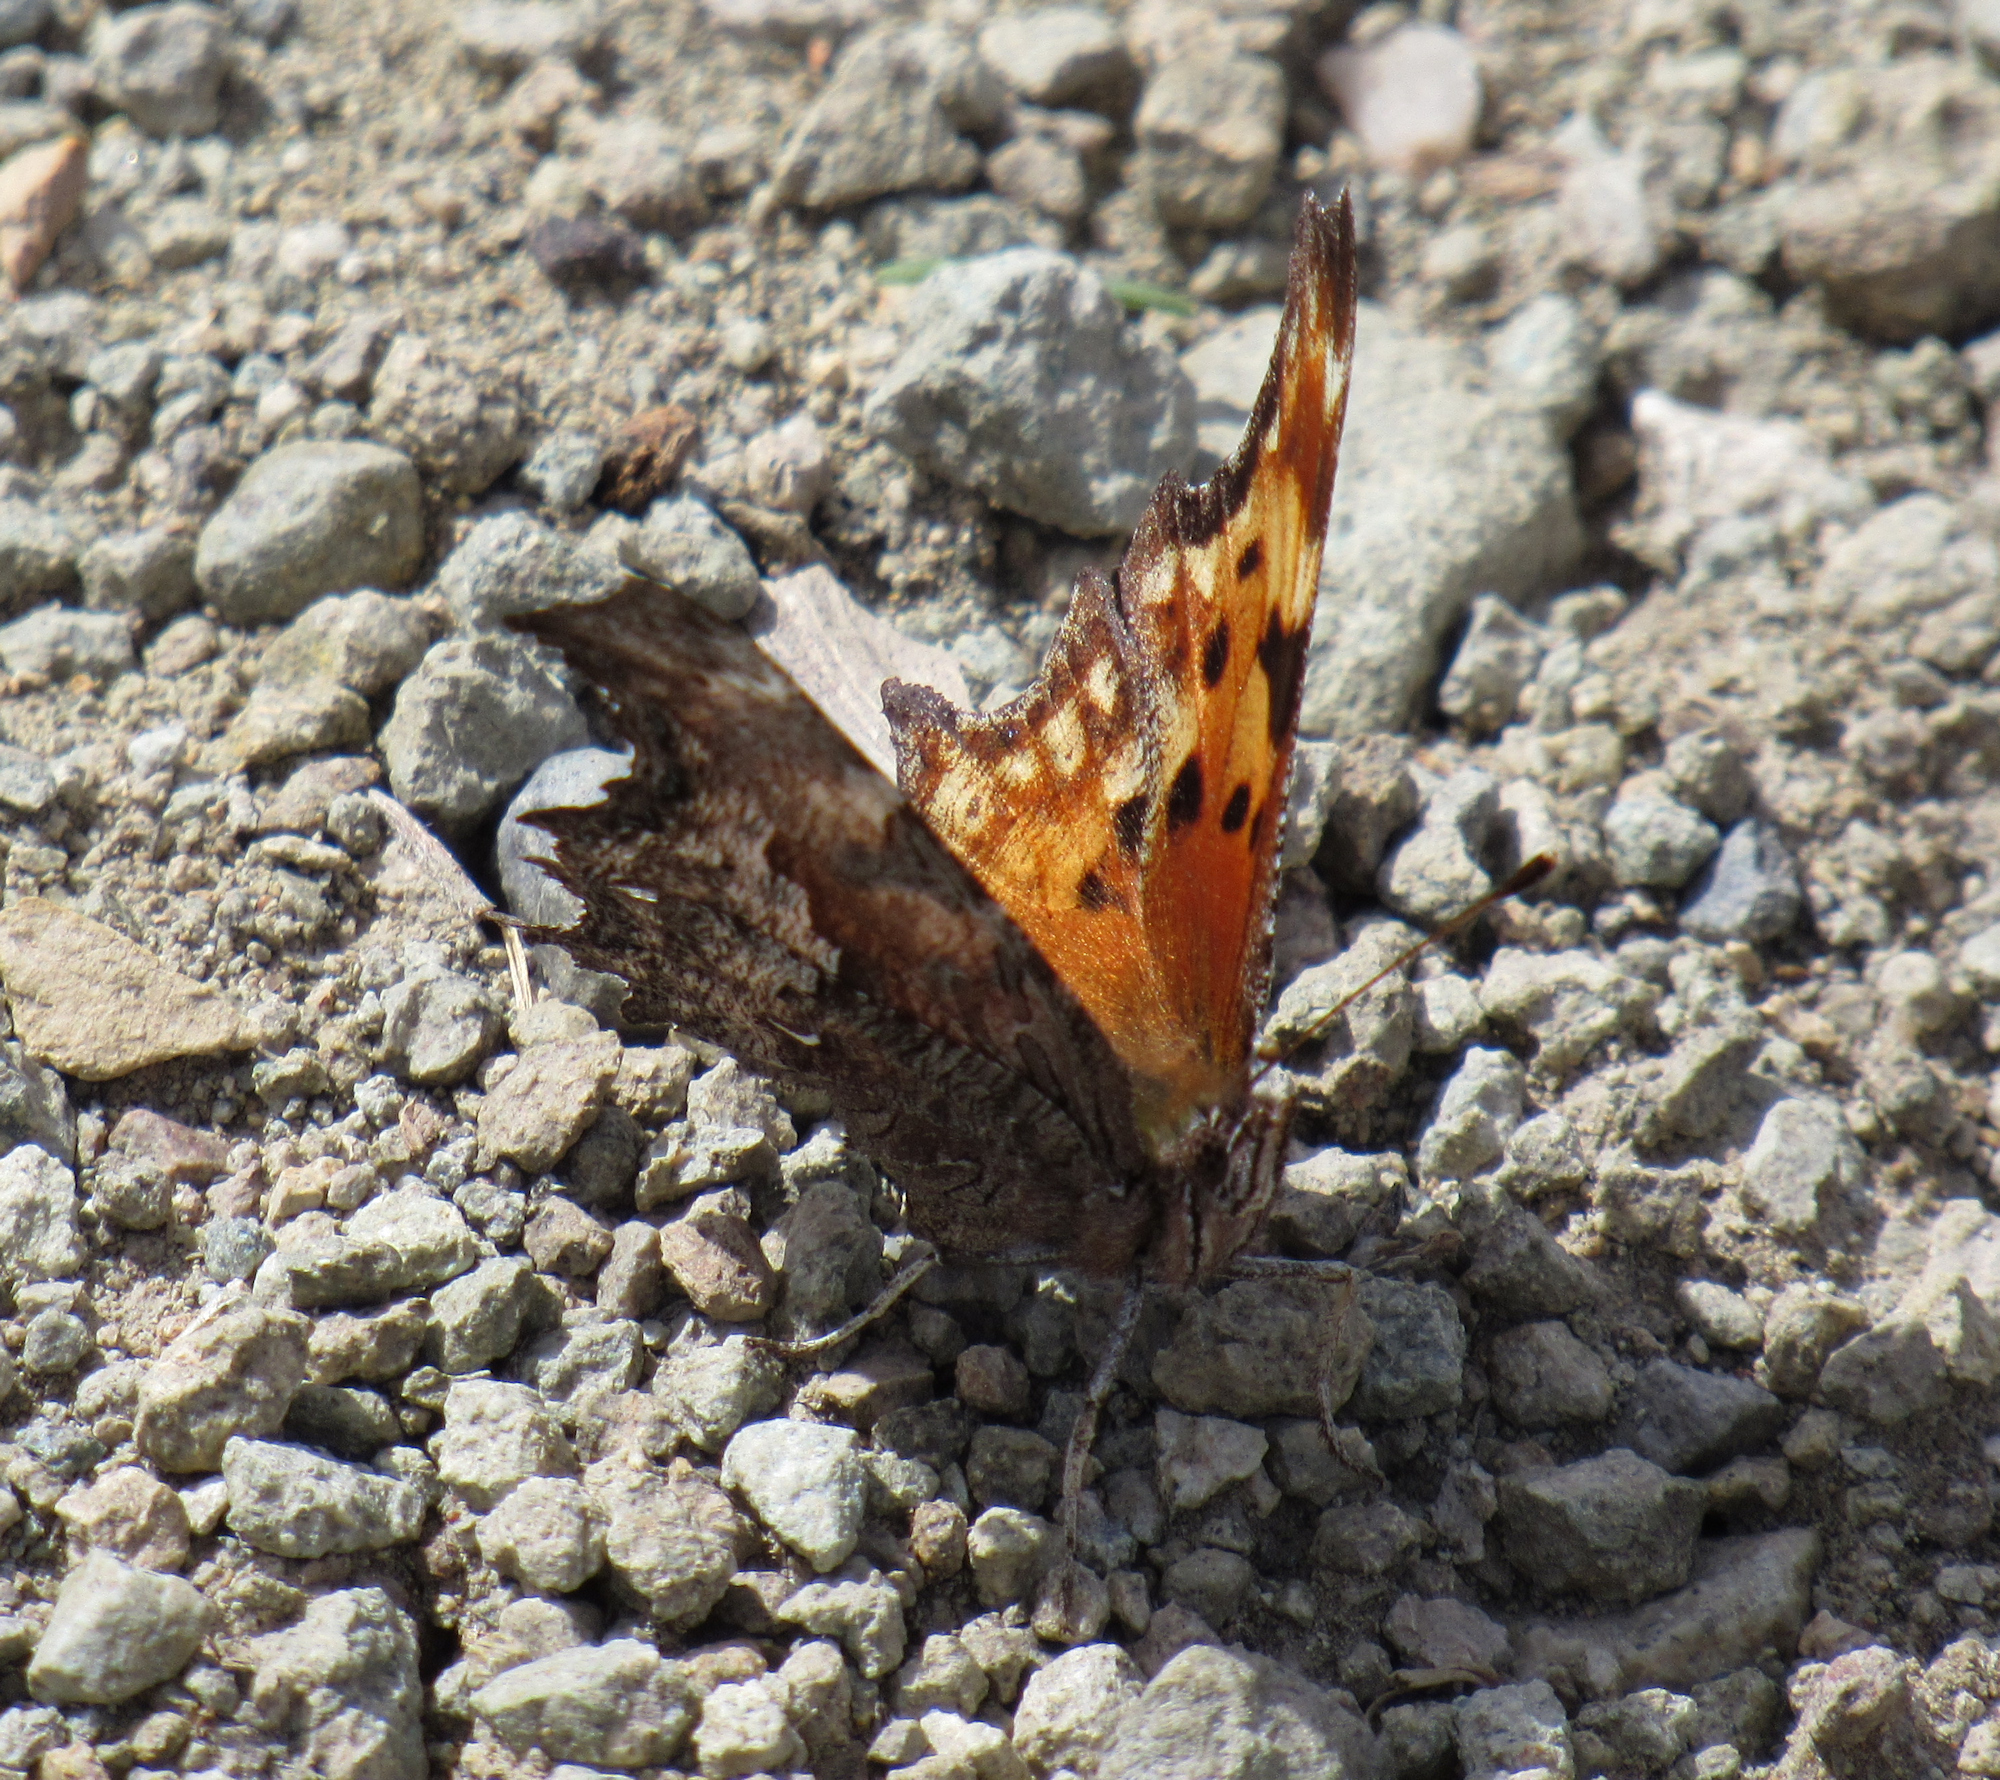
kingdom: Animalia
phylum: Arthropoda
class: Insecta
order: Lepidoptera
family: Nymphalidae
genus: Polygonia
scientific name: Polygonia gracilis
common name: Hoary comma
